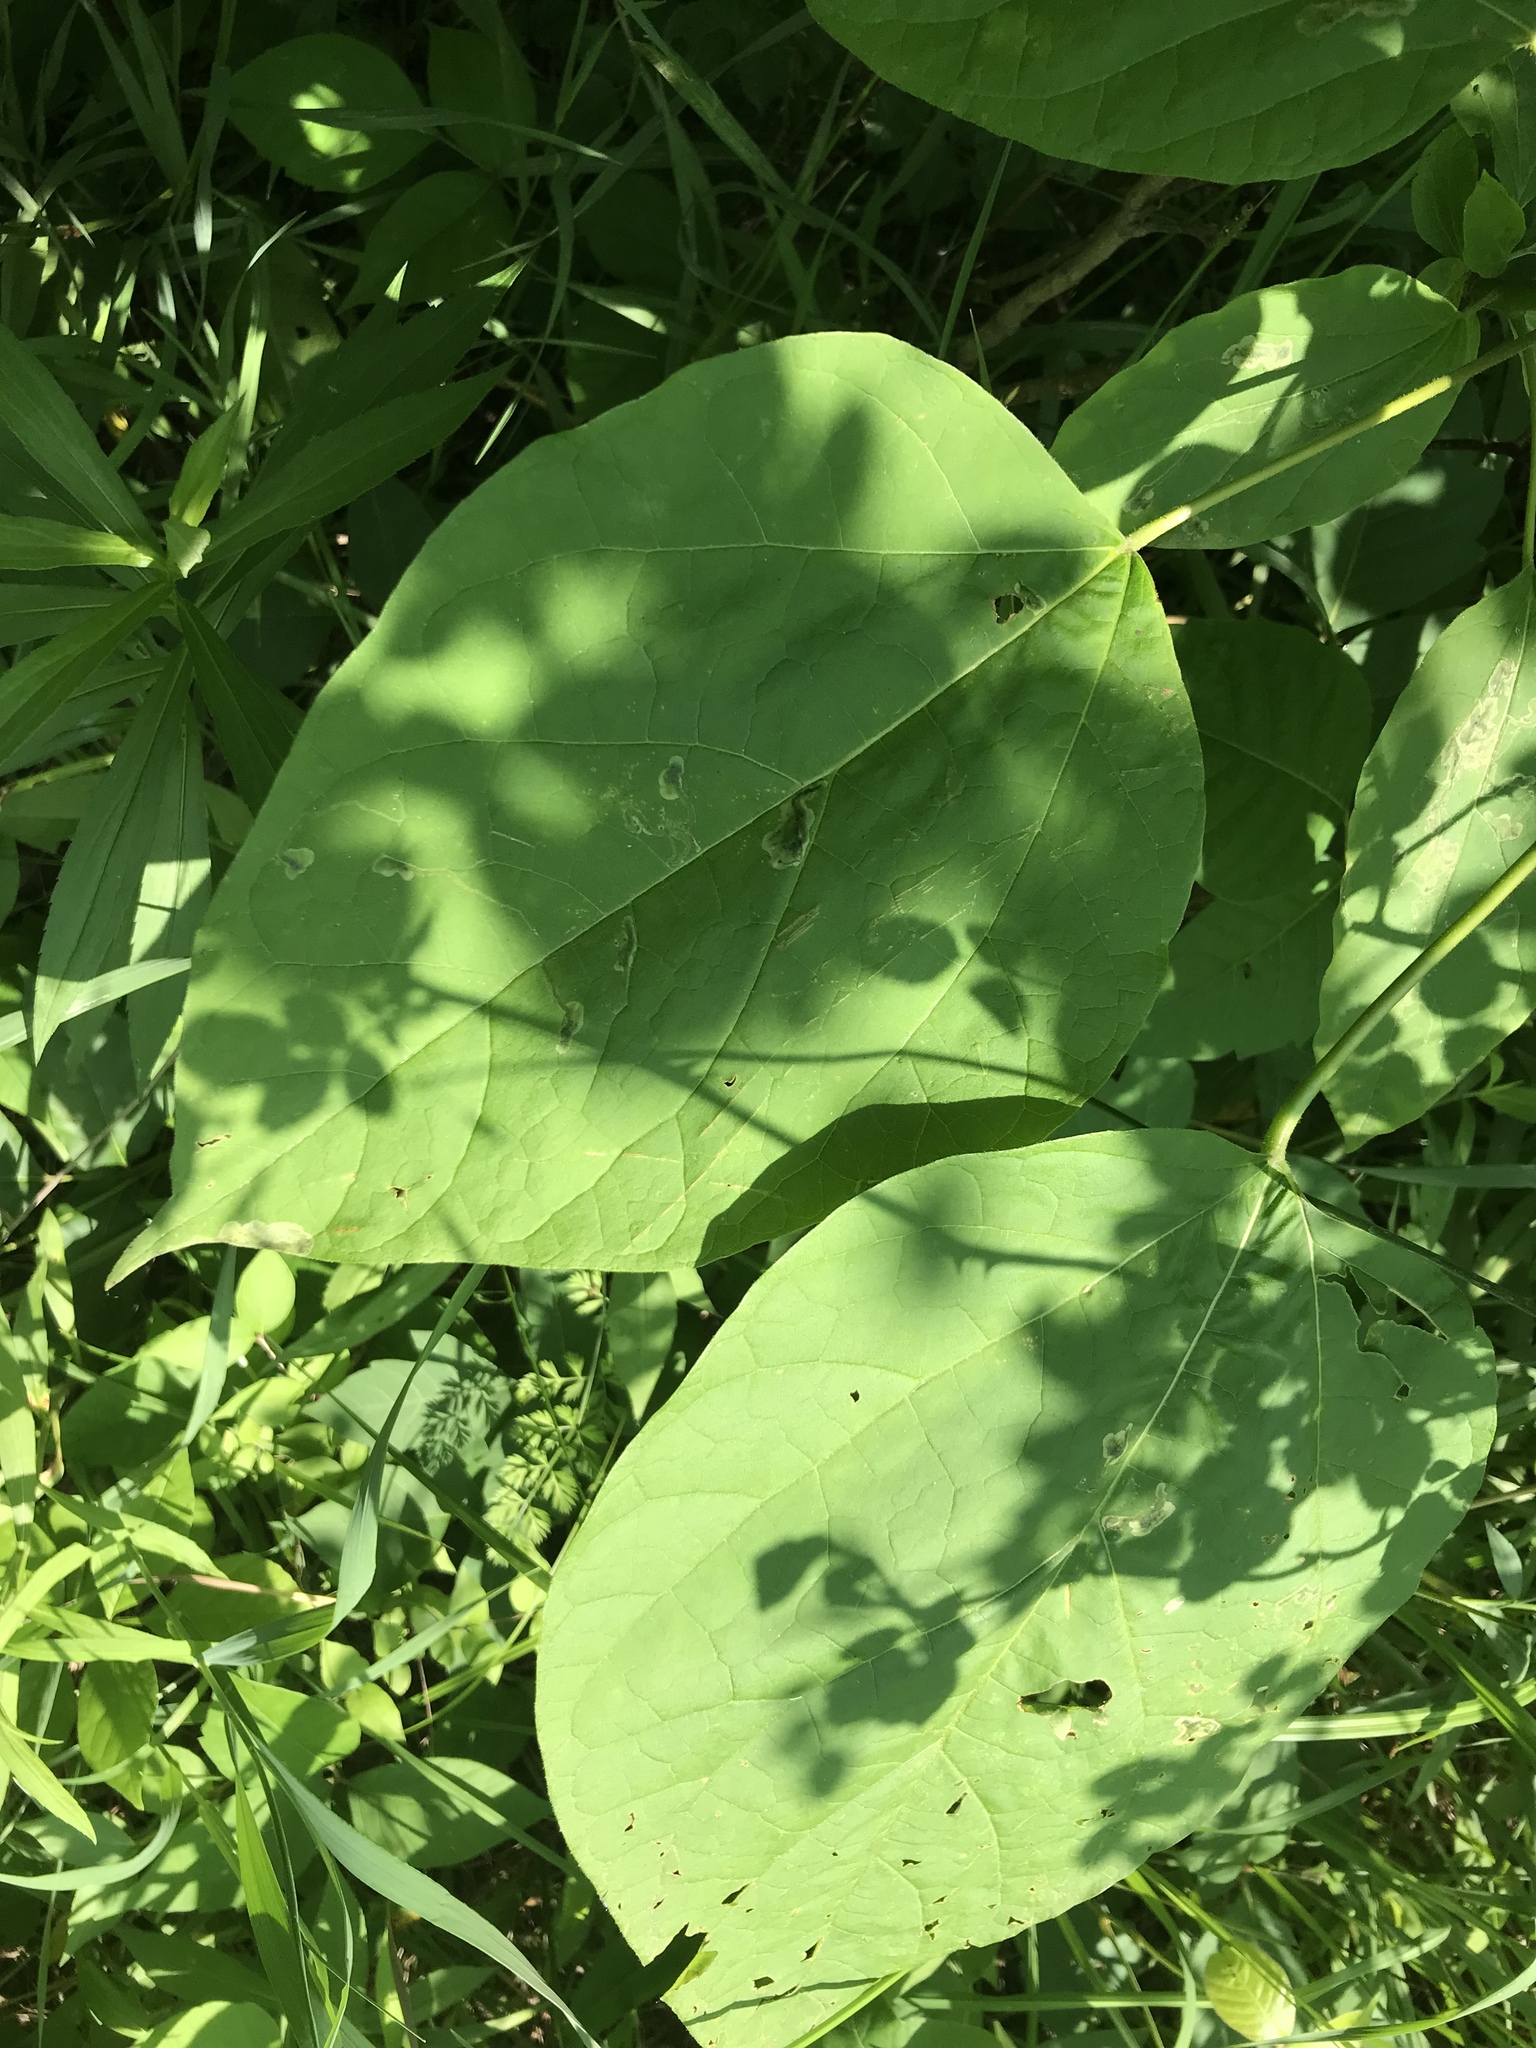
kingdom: Plantae
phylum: Tracheophyta
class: Magnoliopsida
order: Lamiales
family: Bignoniaceae
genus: Catalpa
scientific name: Catalpa speciosa
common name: Northern catalpa
